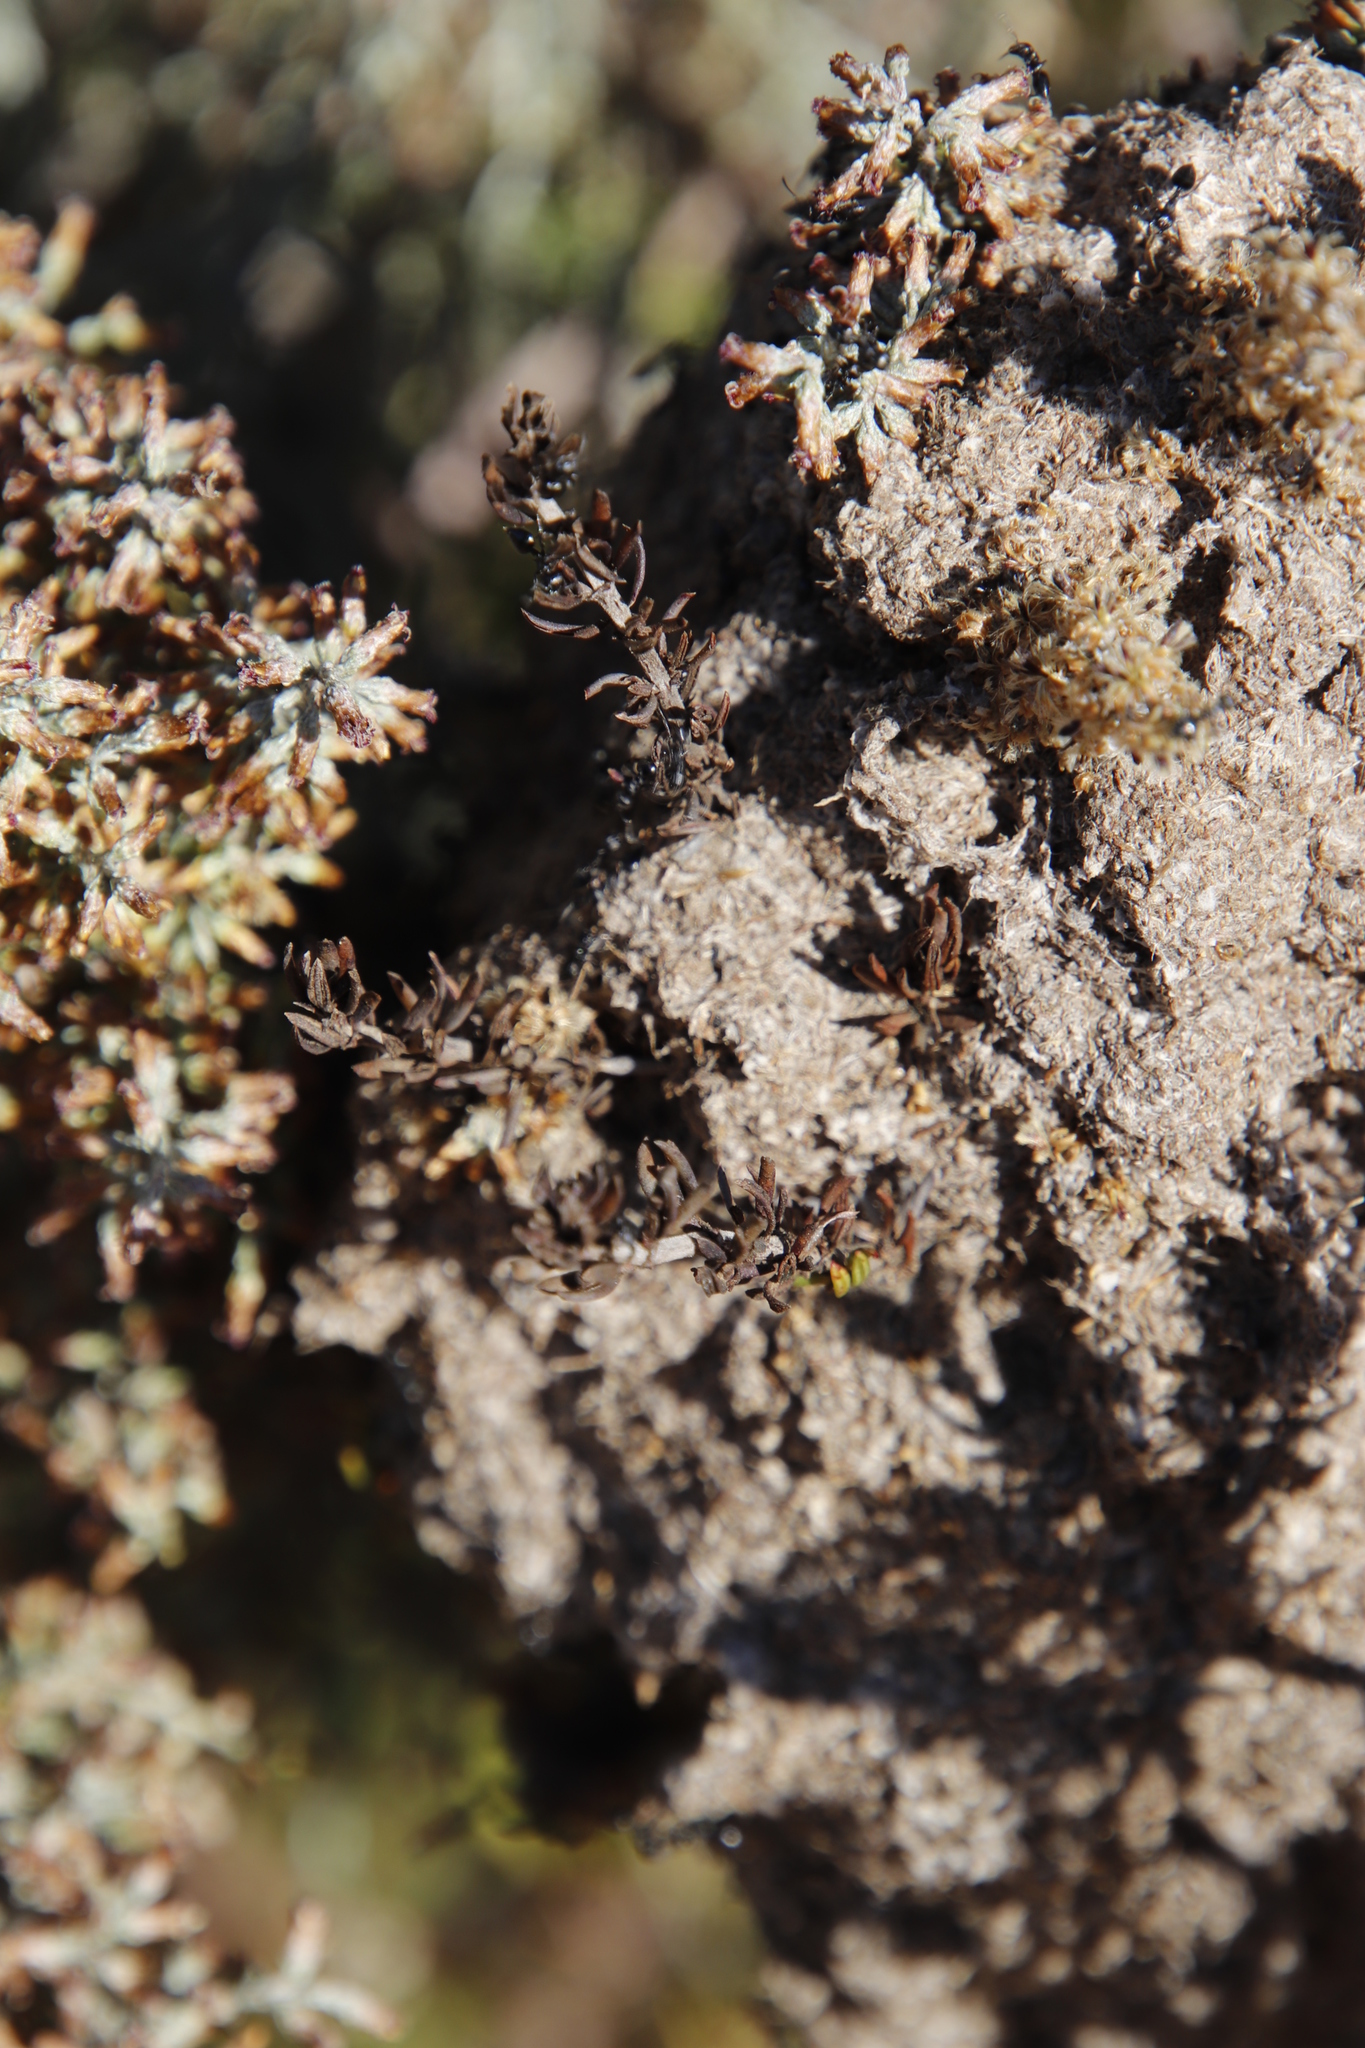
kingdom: Animalia
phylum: Arthropoda
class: Insecta
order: Hymenoptera
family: Formicidae
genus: Crematogaster
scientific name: Crematogaster peringueyi
